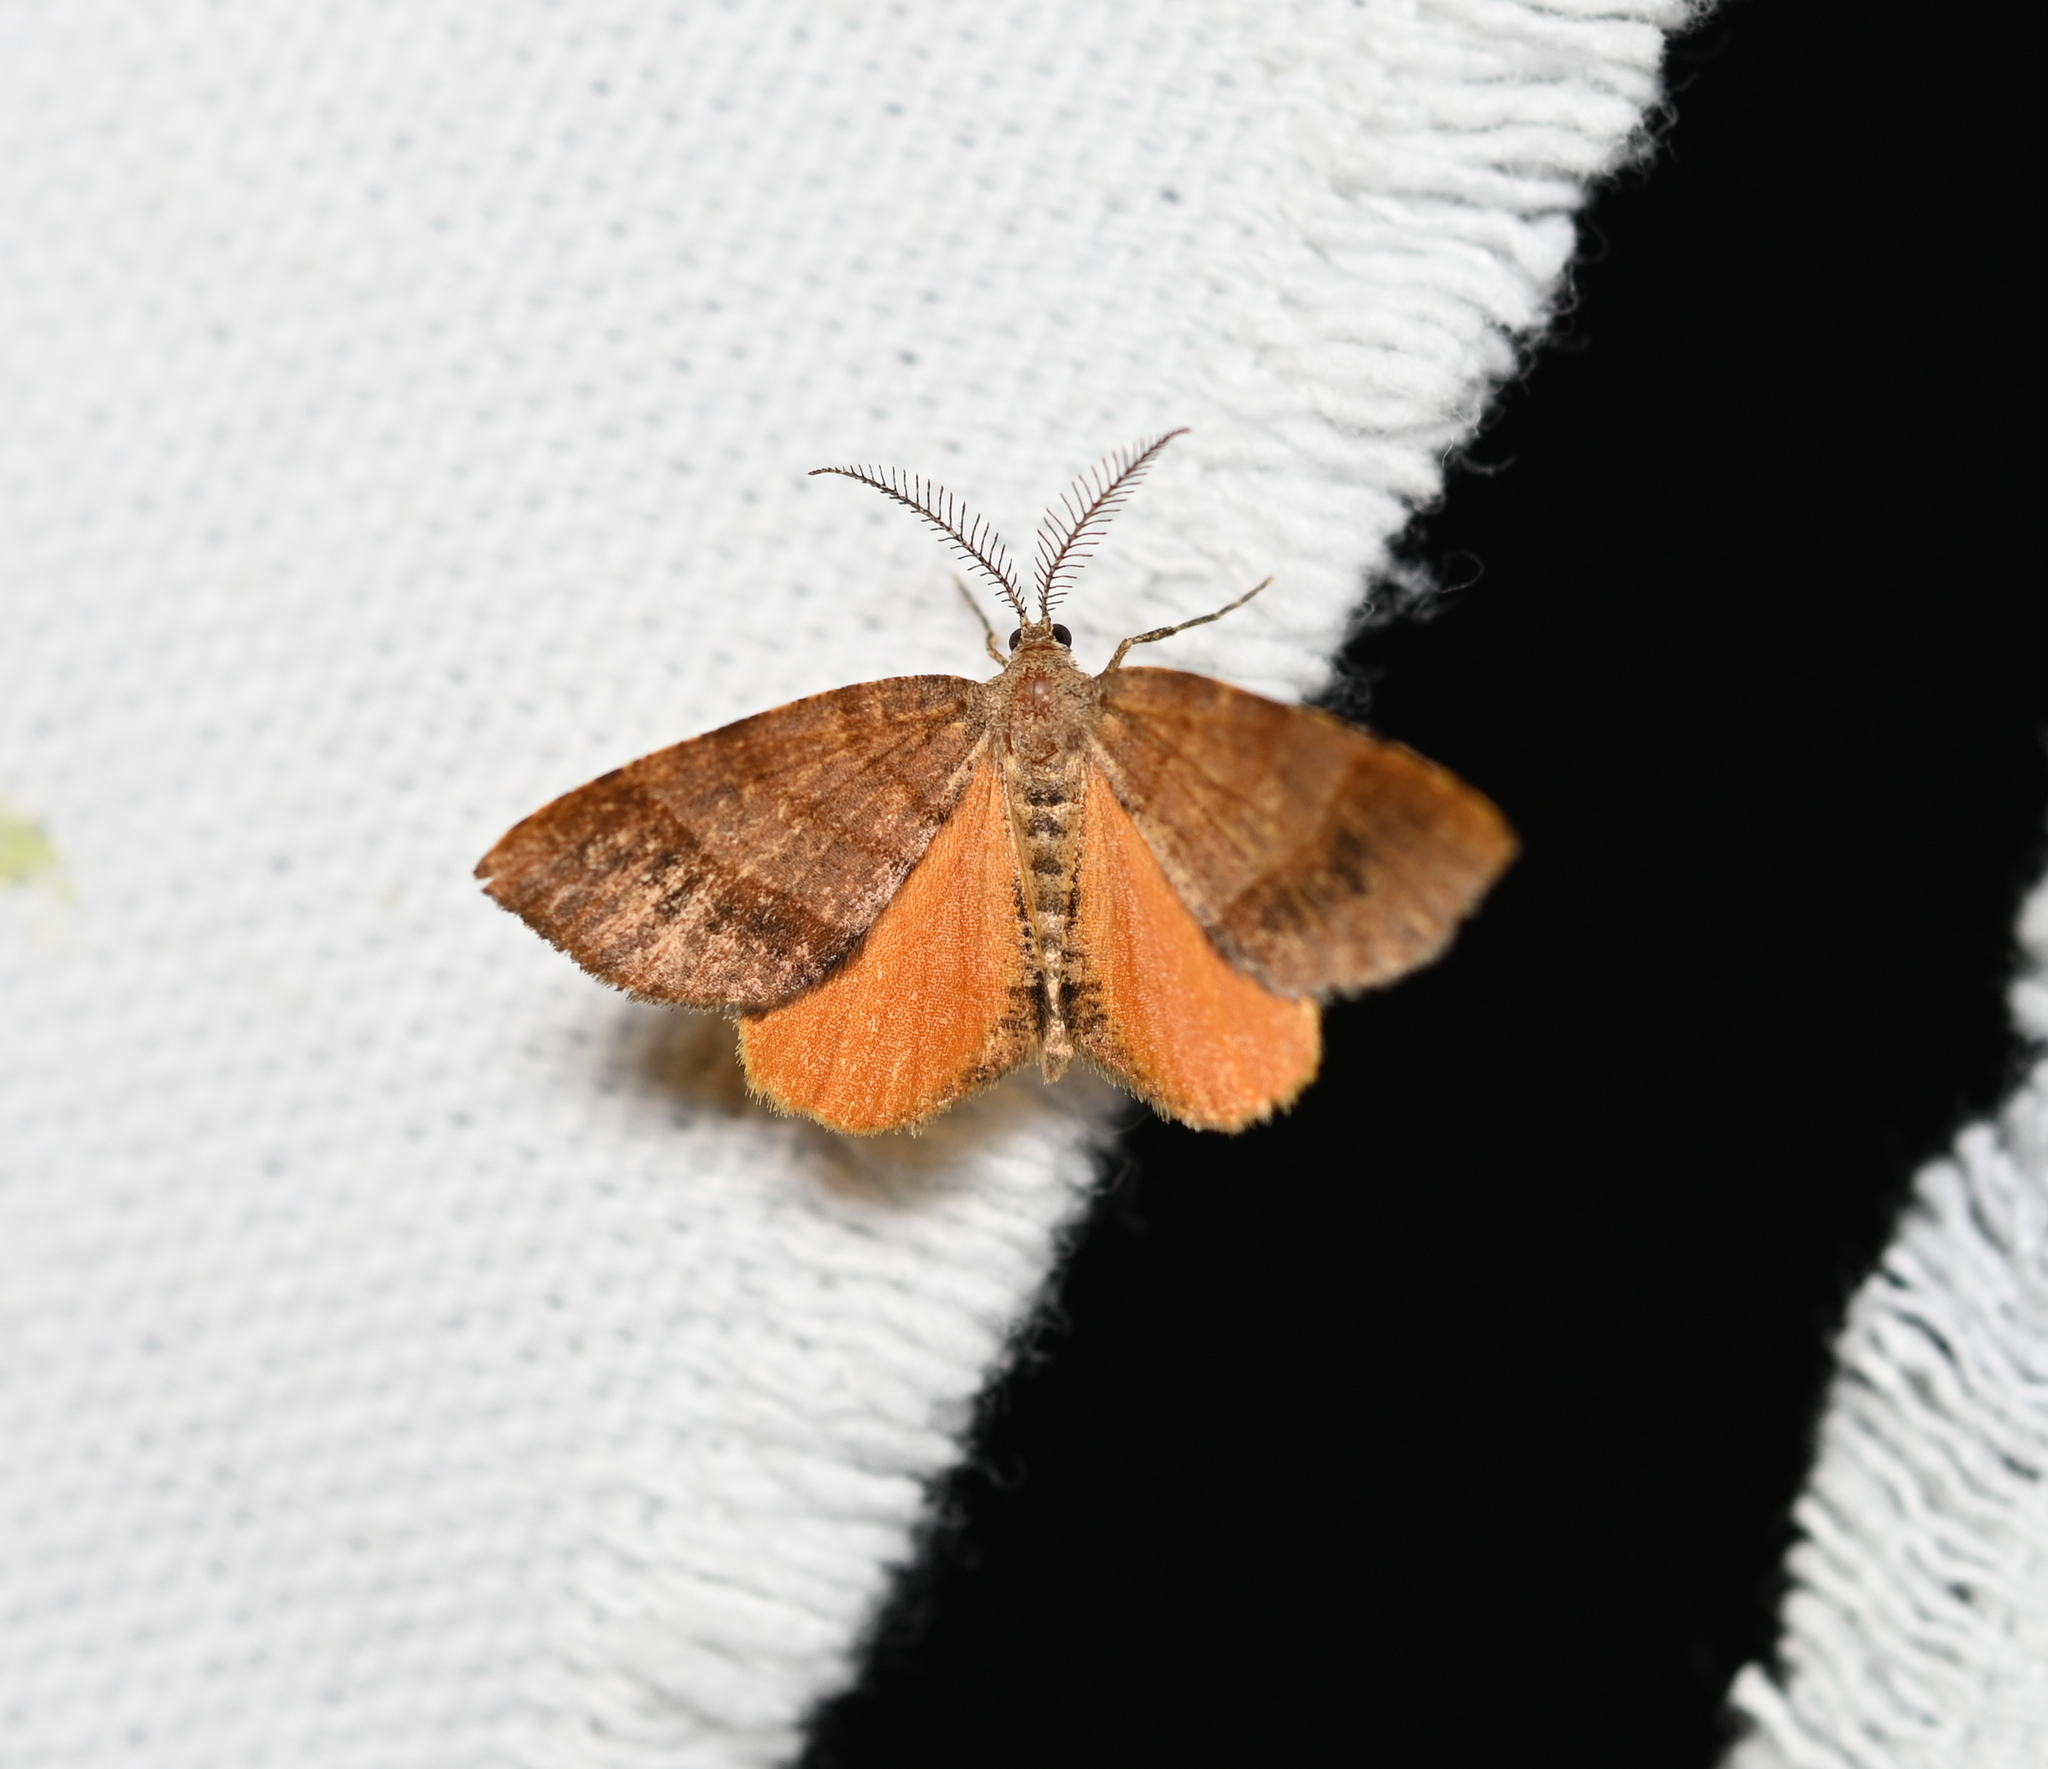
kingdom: Animalia
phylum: Arthropoda
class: Insecta
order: Lepidoptera
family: Geometridae
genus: Mellilla
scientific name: Mellilla xanthometata
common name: Orange wing moth
